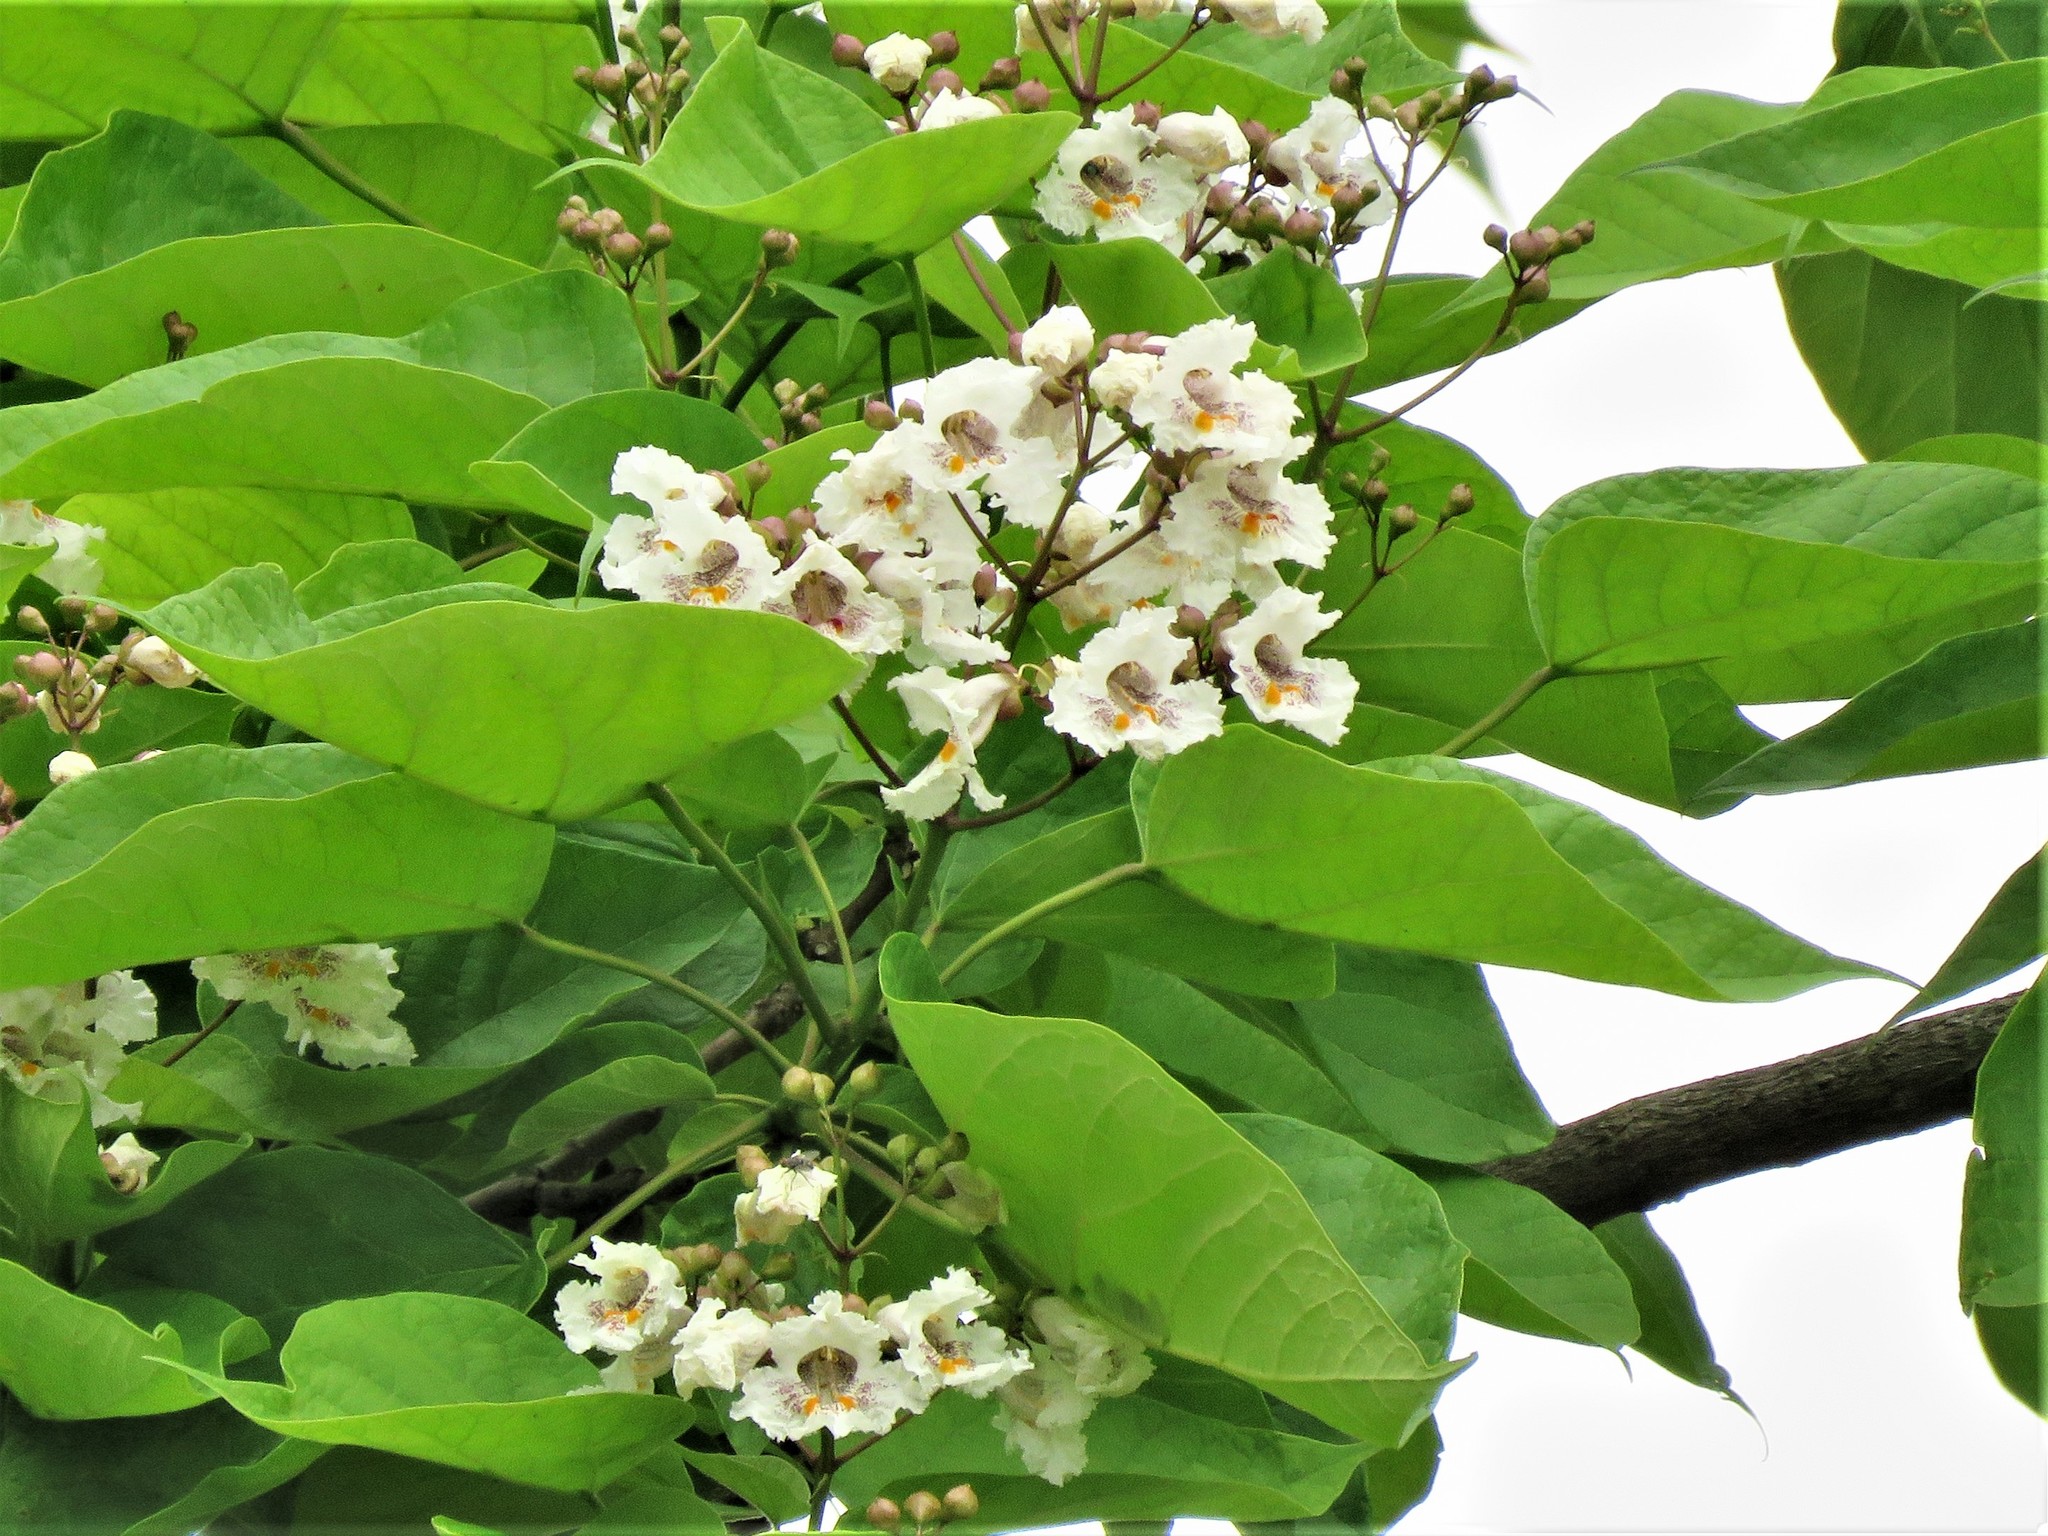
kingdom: Plantae
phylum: Tracheophyta
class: Magnoliopsida
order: Lamiales
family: Bignoniaceae
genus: Catalpa
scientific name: Catalpa speciosa
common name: Northern catalpa
